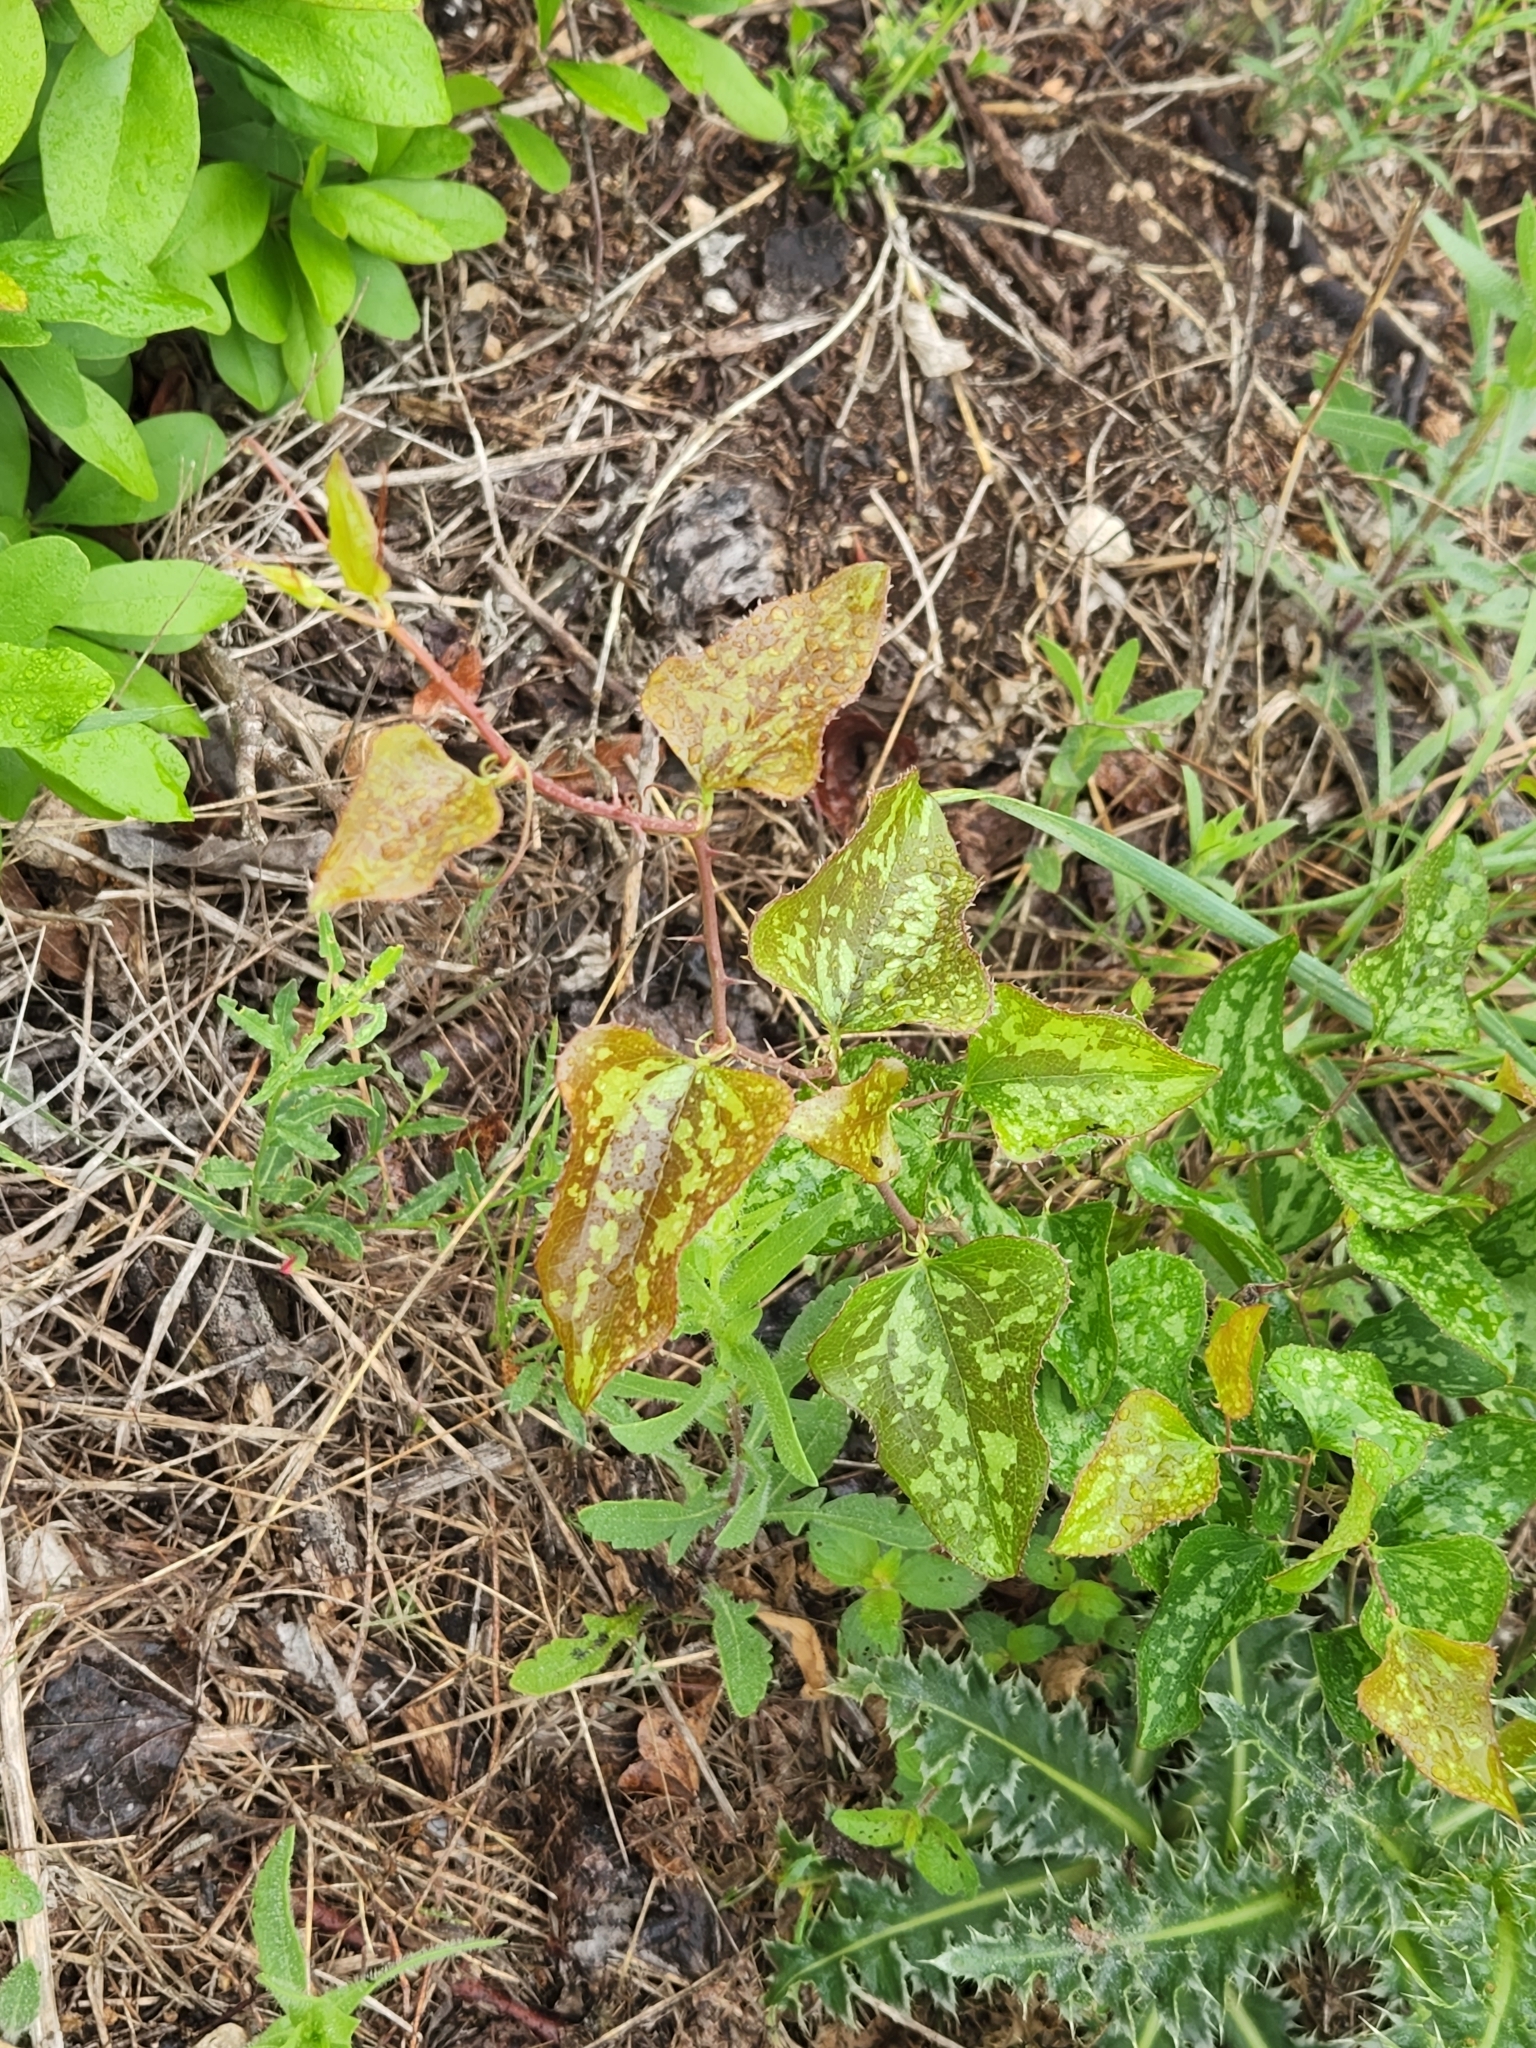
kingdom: Plantae
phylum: Tracheophyta
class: Liliopsida
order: Liliales
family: Smilacaceae
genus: Smilax
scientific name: Smilax bona-nox
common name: Catbrier
